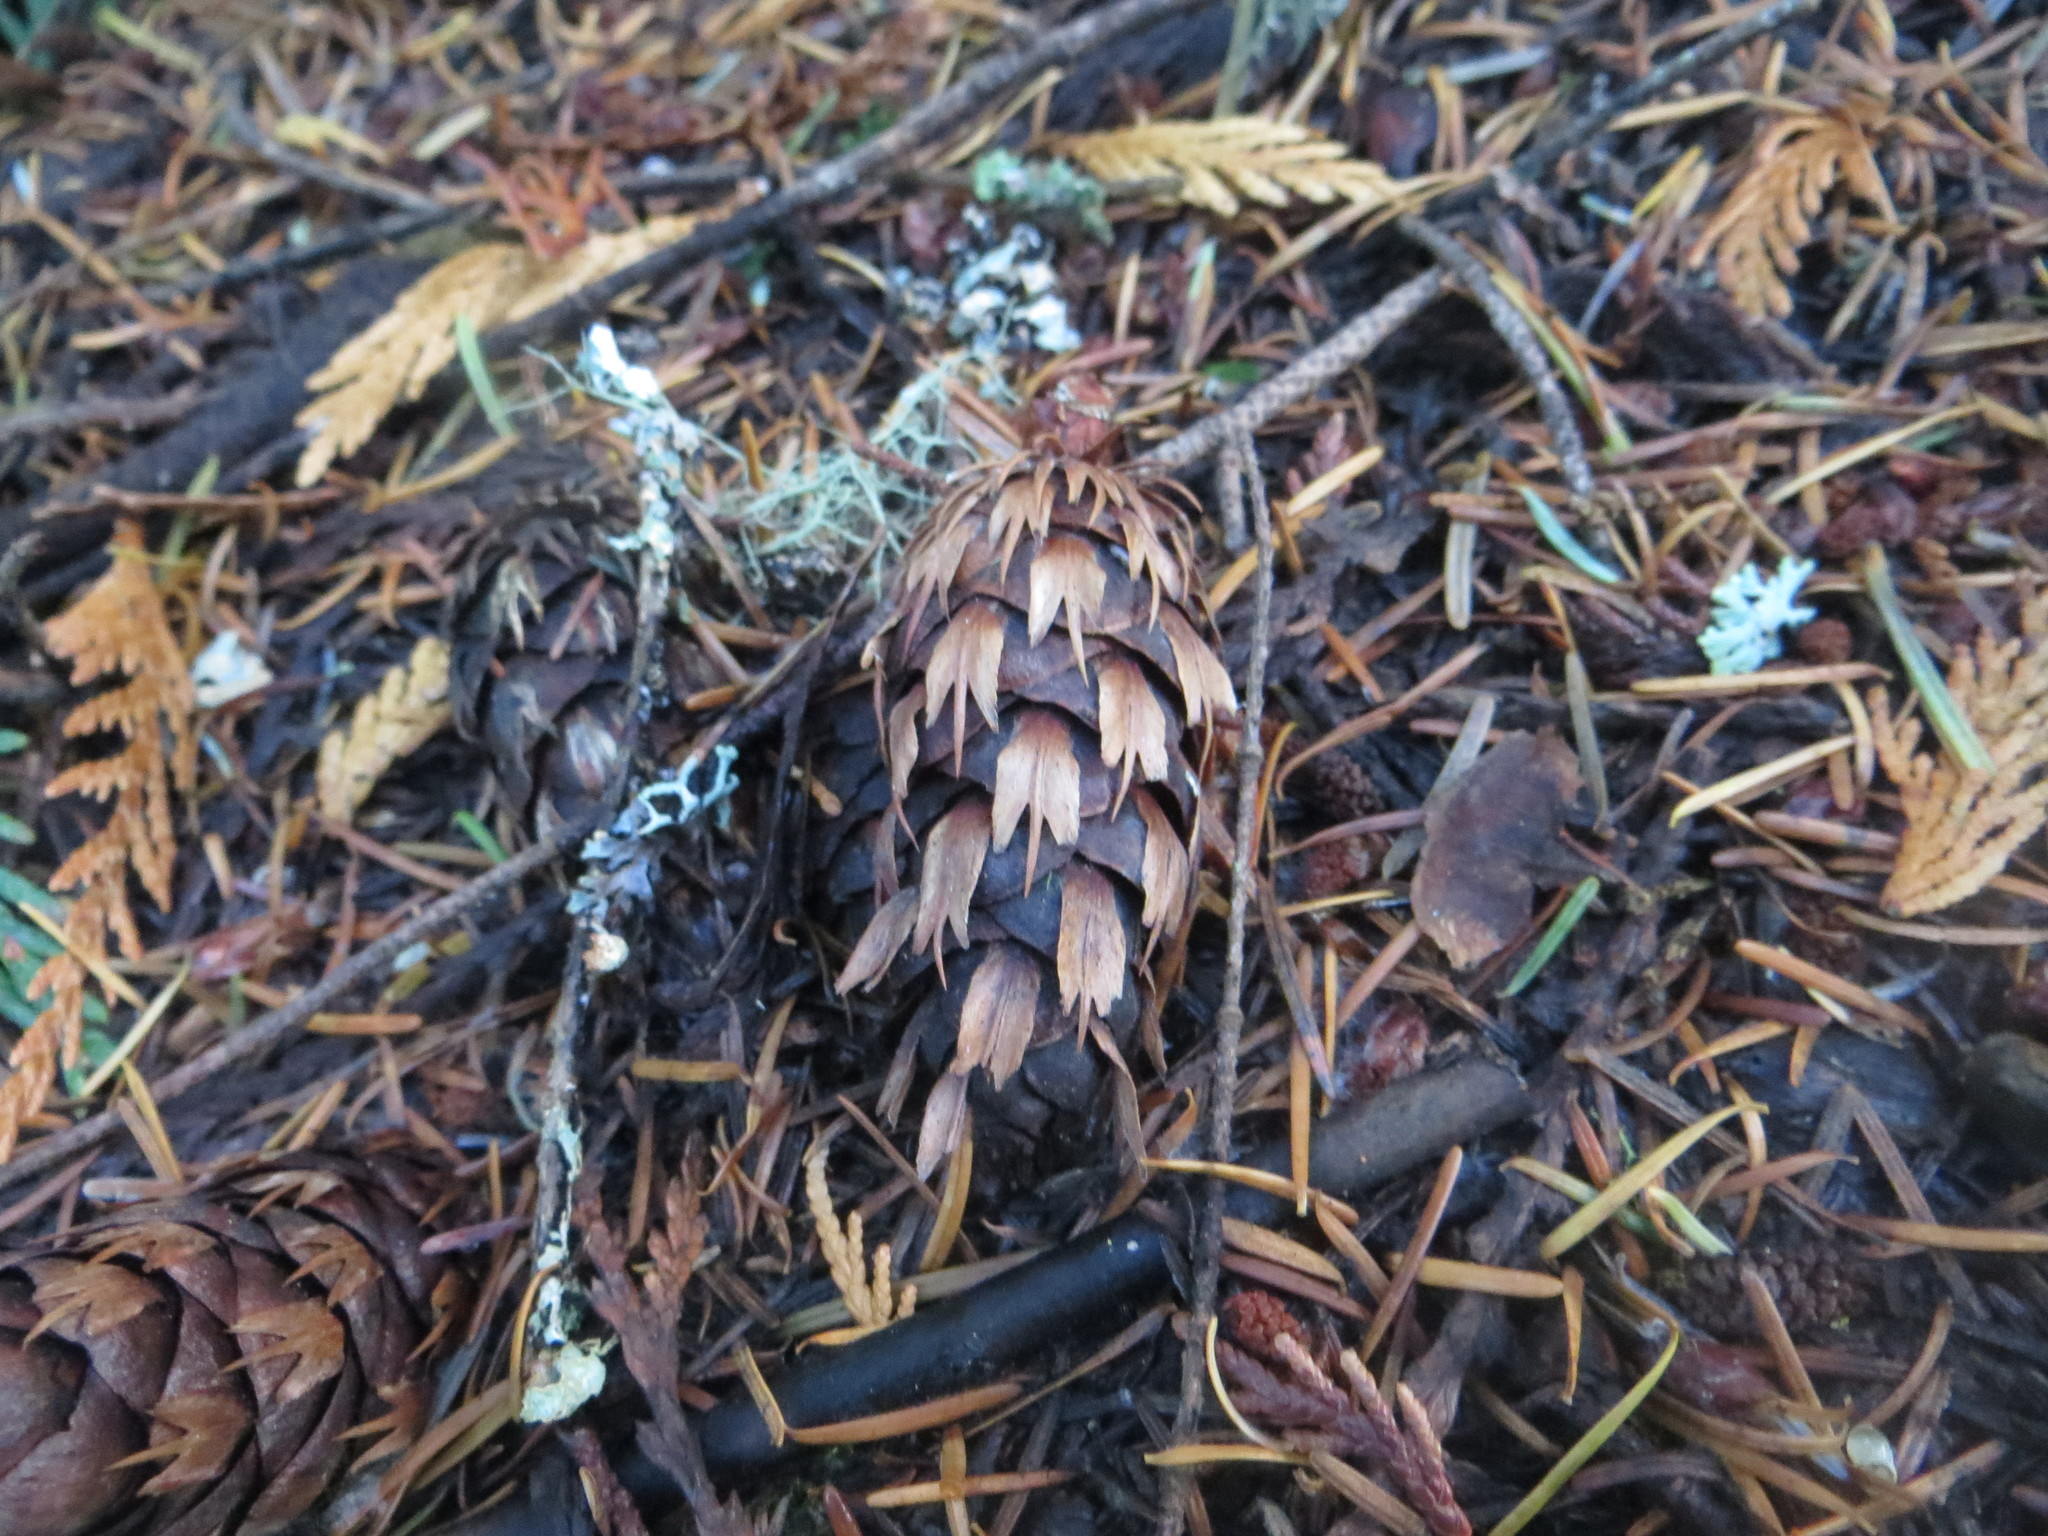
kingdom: Plantae
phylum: Tracheophyta
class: Pinopsida
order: Pinales
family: Pinaceae
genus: Pseudotsuga
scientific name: Pseudotsuga menziesii
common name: Douglas fir
